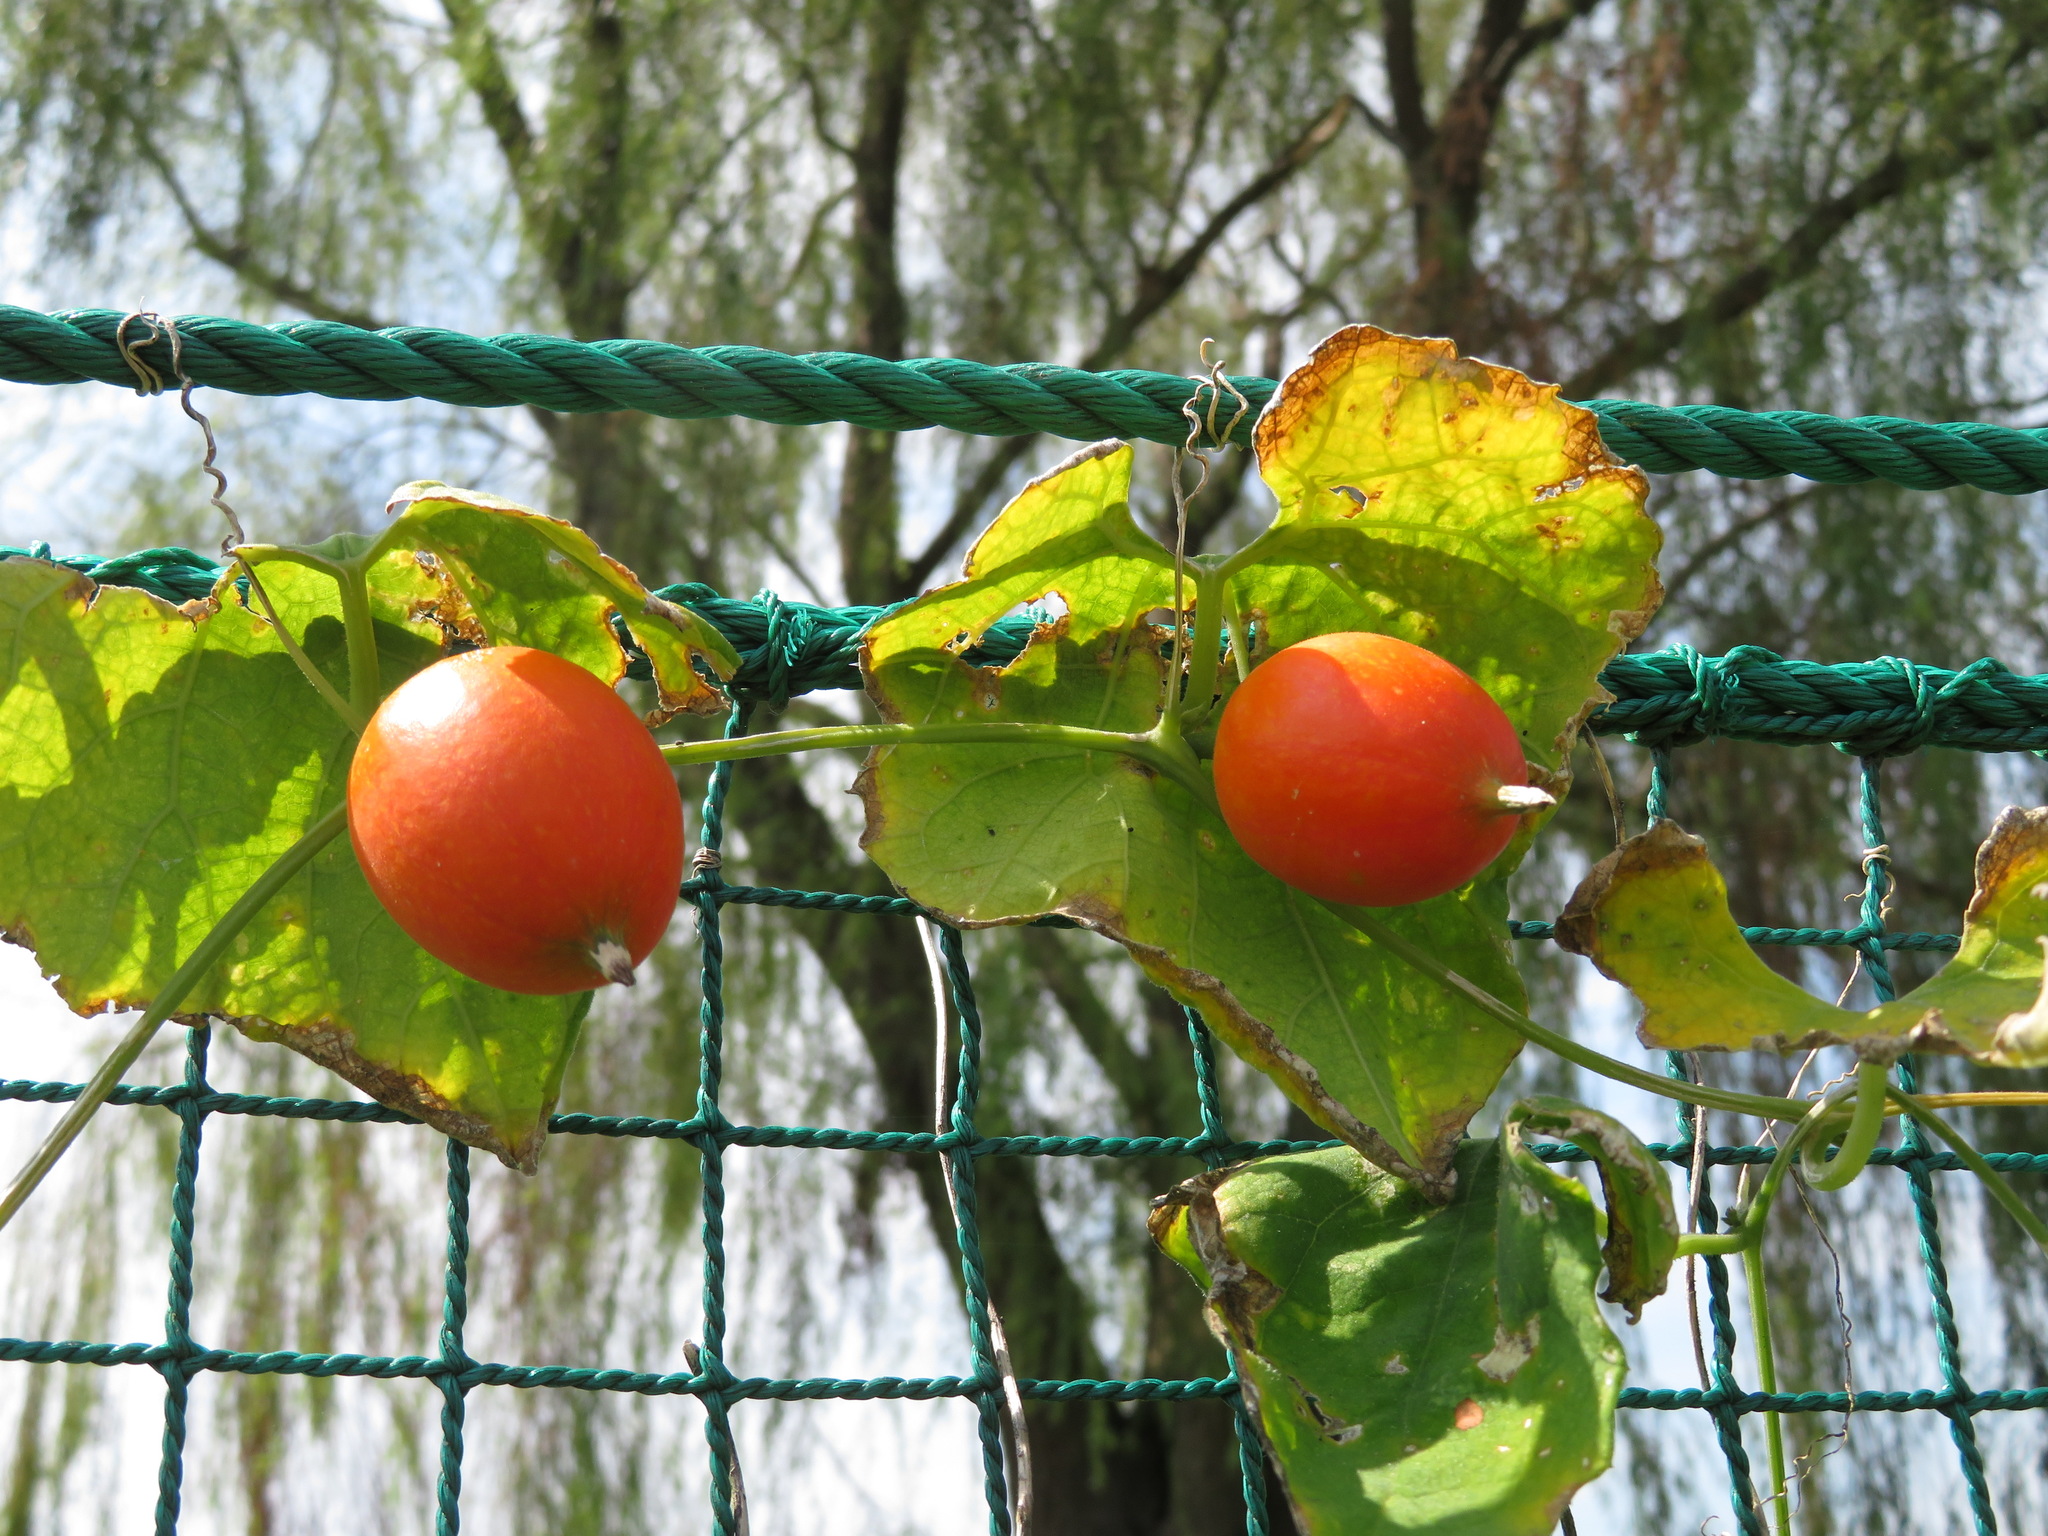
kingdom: Plantae
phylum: Tracheophyta
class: Magnoliopsida
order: Cucurbitales
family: Cucurbitaceae
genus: Trichosanthes
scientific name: Trichosanthes cucumeroides
